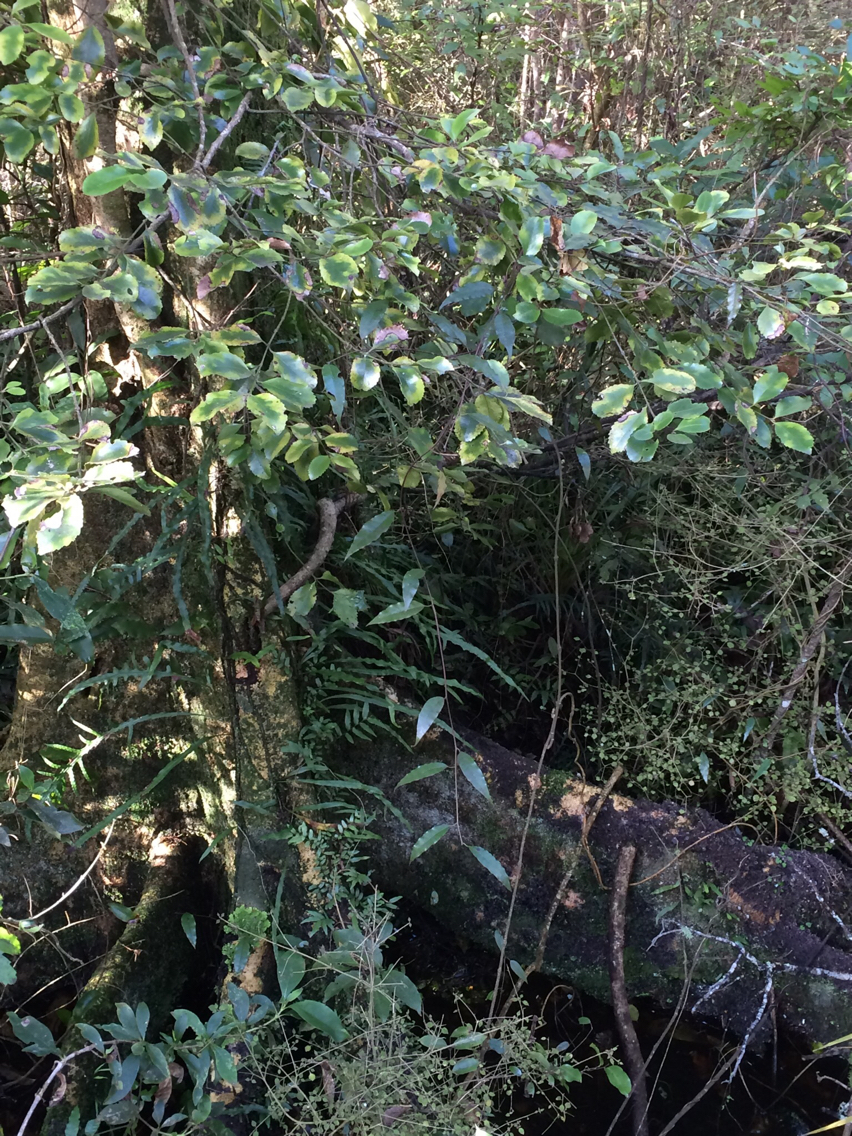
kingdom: Plantae
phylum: Tracheophyta
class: Magnoliopsida
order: Laurales
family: Atherospermataceae
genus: Laurelia
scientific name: Laurelia novae-zelandiae
